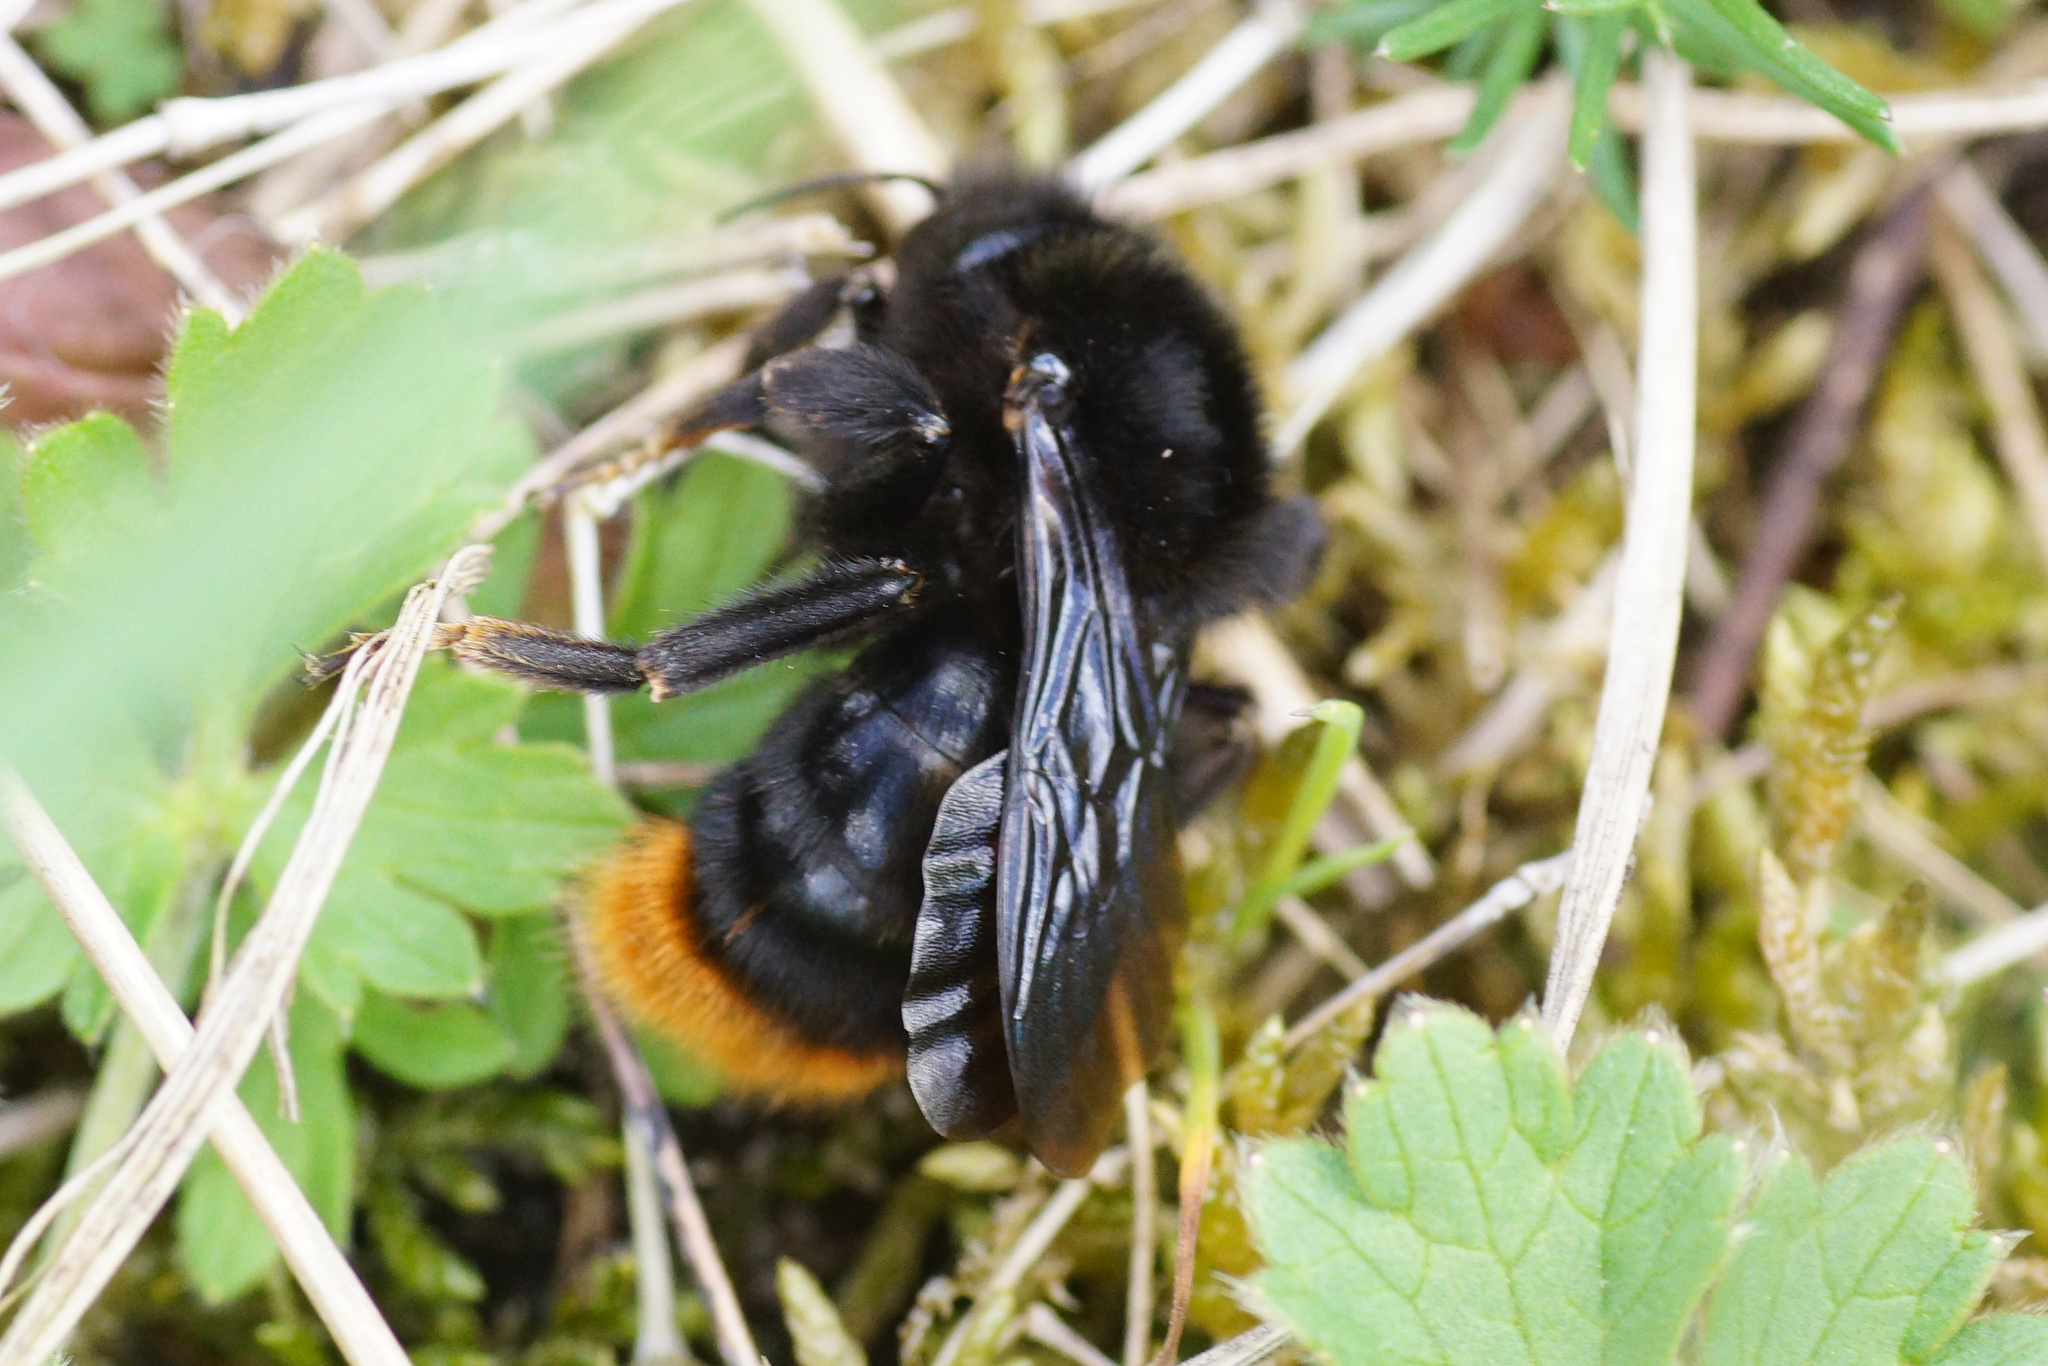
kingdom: Animalia
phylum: Arthropoda
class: Insecta
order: Hymenoptera
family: Apidae
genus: Bombus
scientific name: Bombus rupestris
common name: Hill cuckoo-bee
